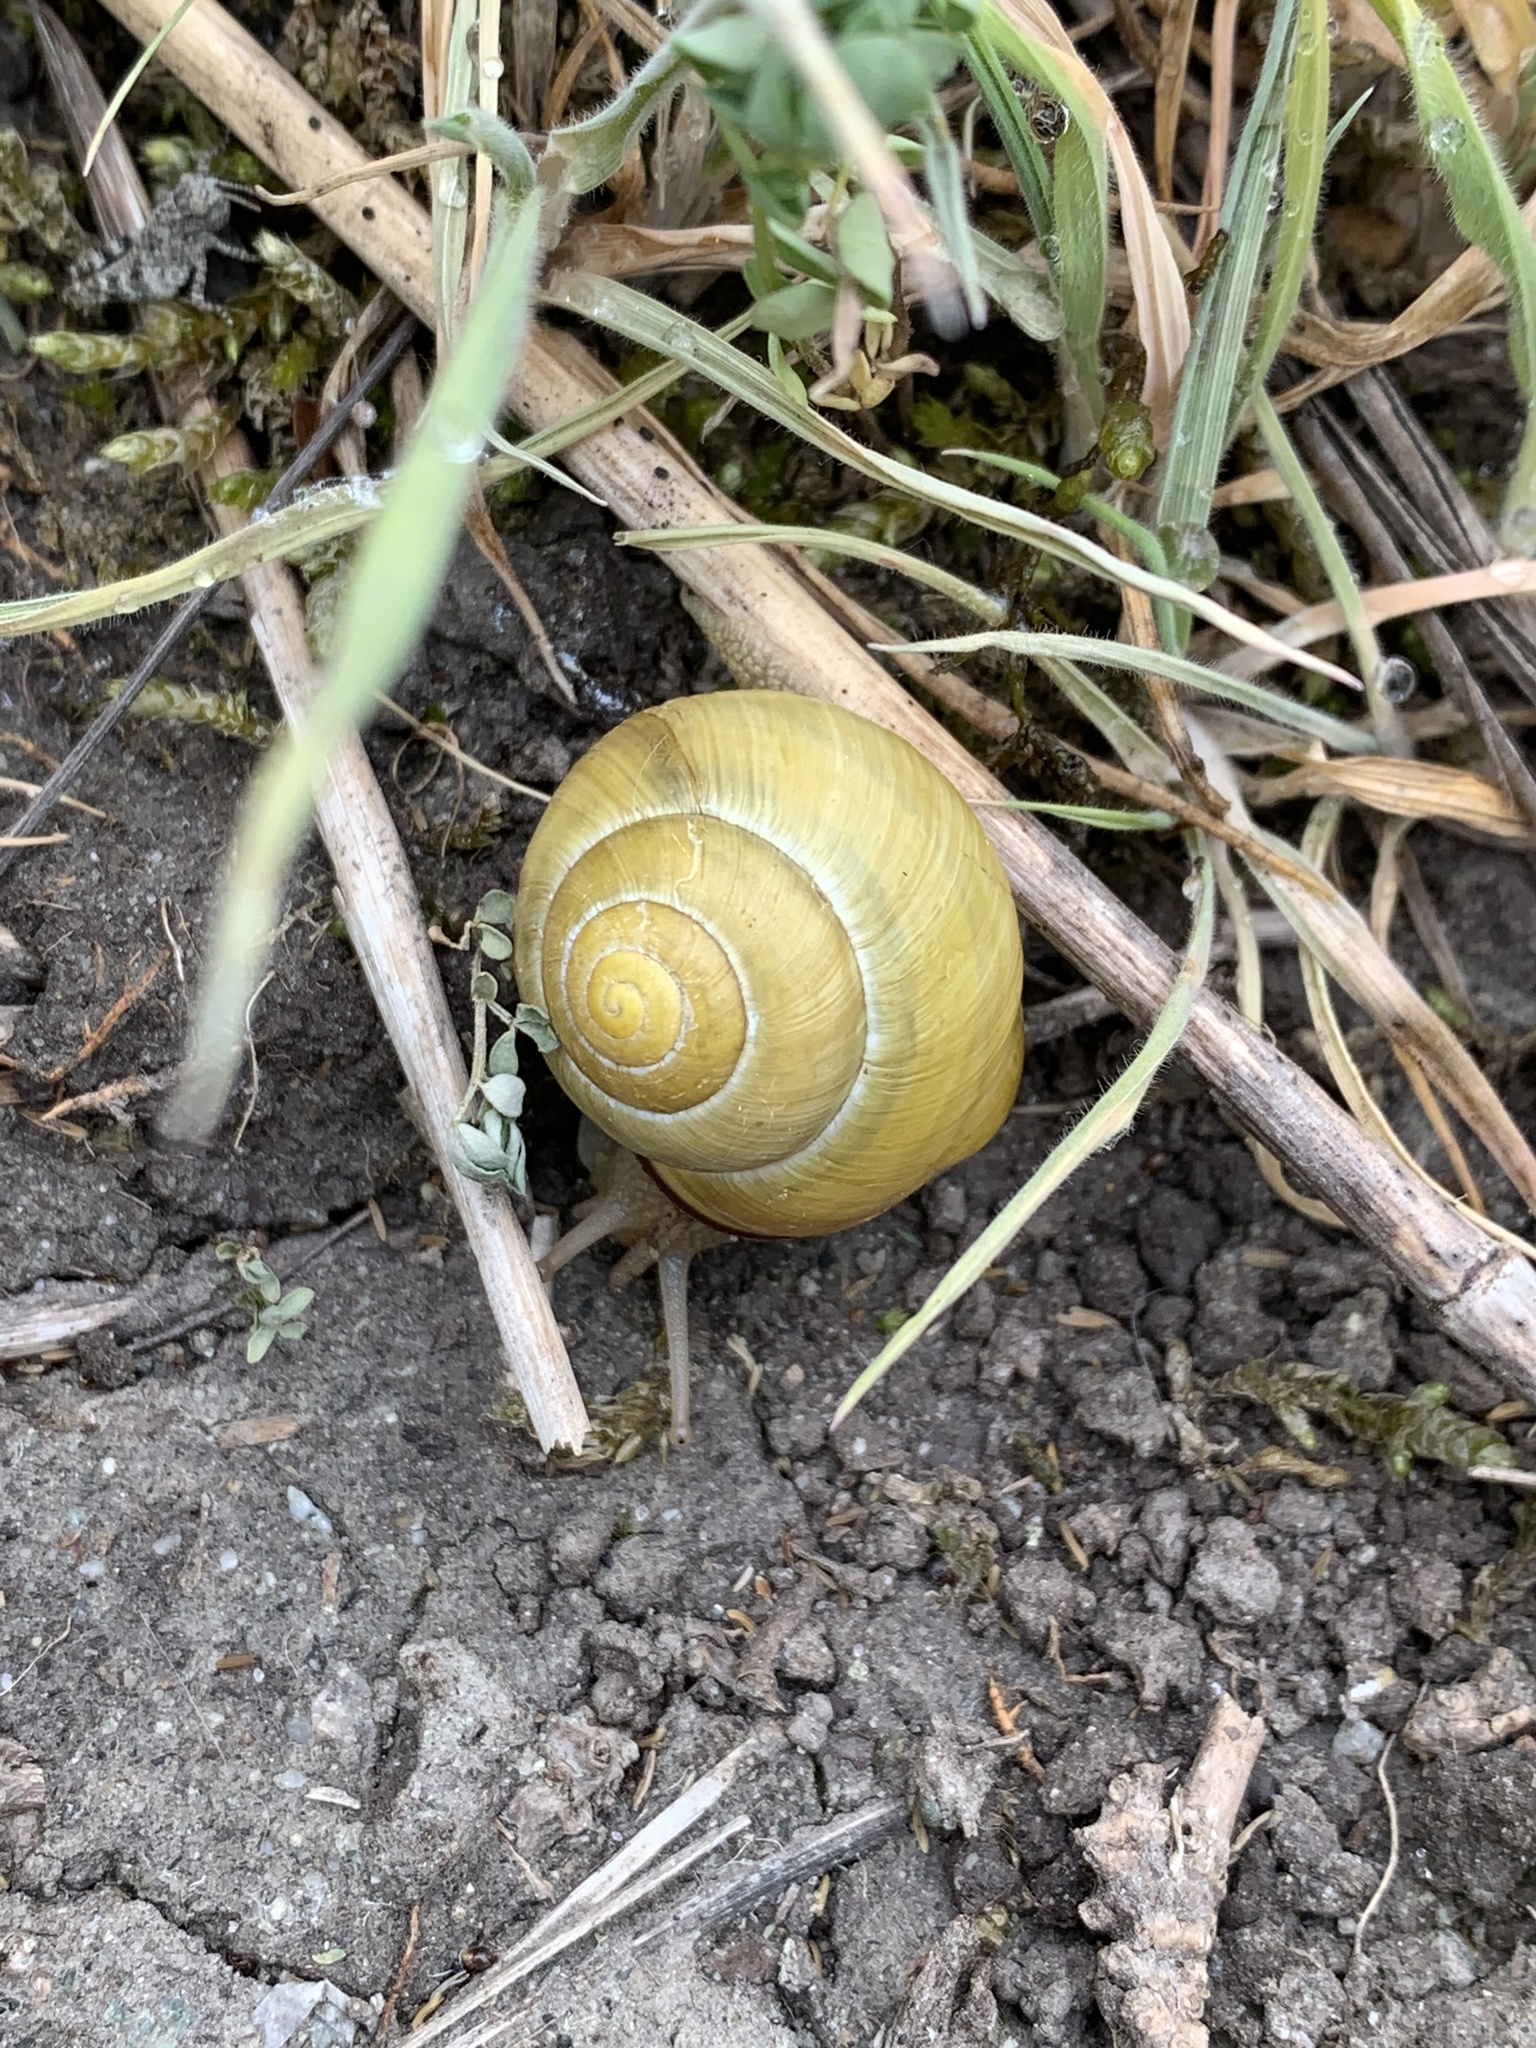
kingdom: Animalia
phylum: Mollusca
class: Gastropoda
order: Stylommatophora
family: Helicidae
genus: Cepaea
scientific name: Cepaea nemoralis
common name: Grovesnail
